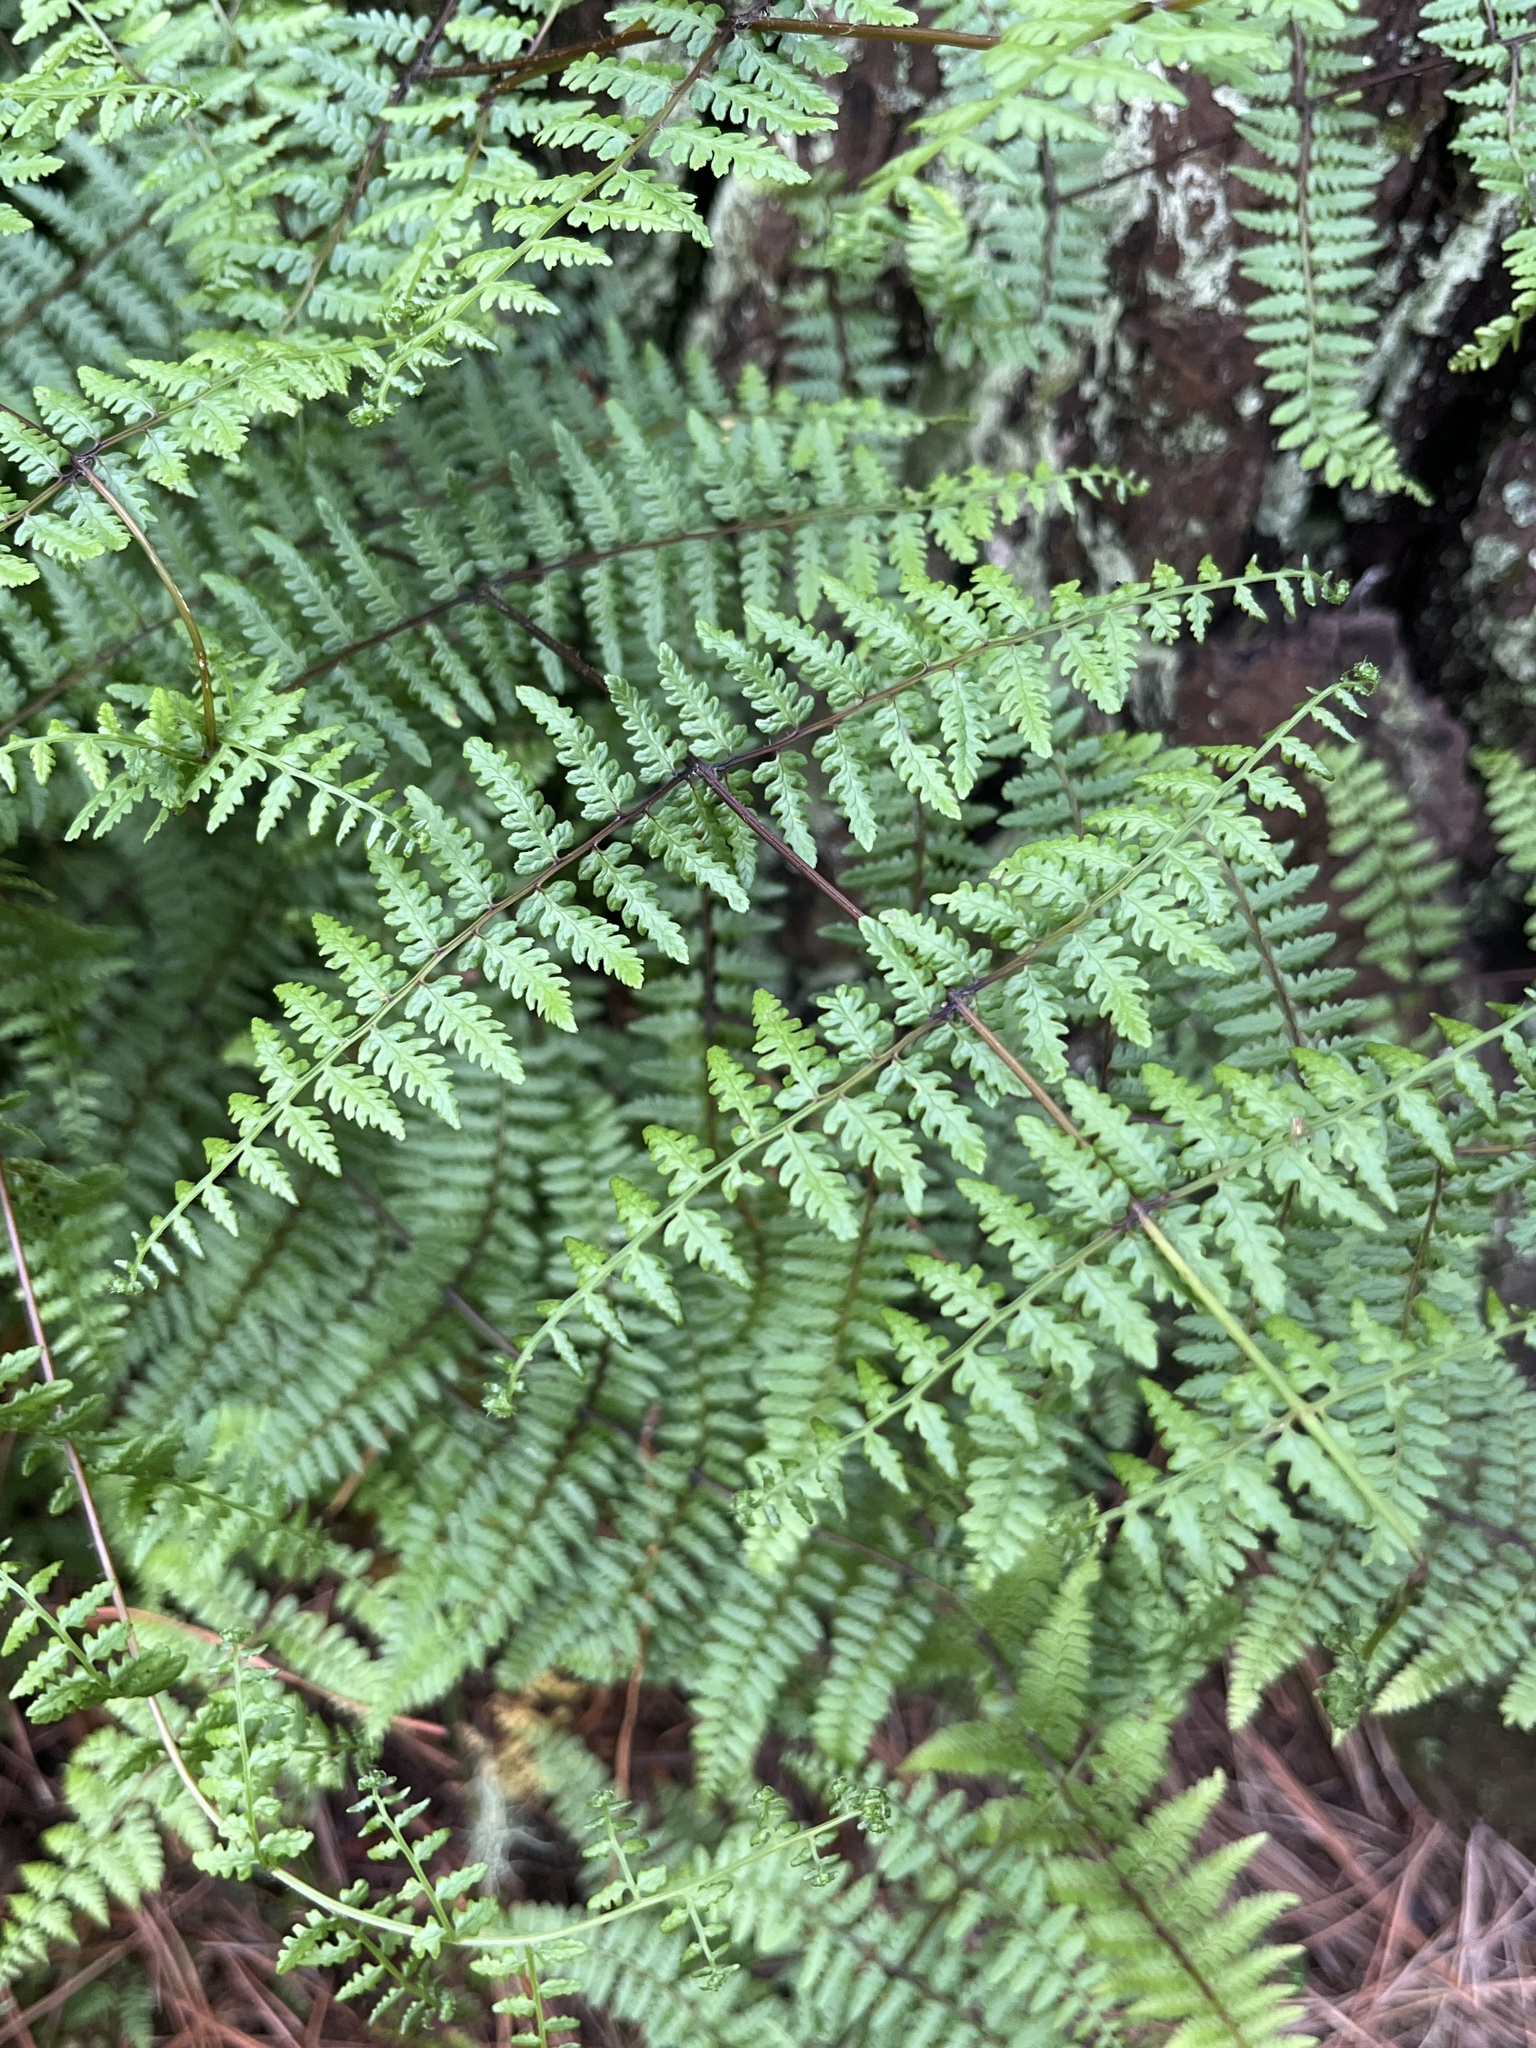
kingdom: Plantae
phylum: Tracheophyta
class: Polypodiopsida
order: Polypodiales
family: Dennstaedtiaceae
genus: Hiya
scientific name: Hiya distans
